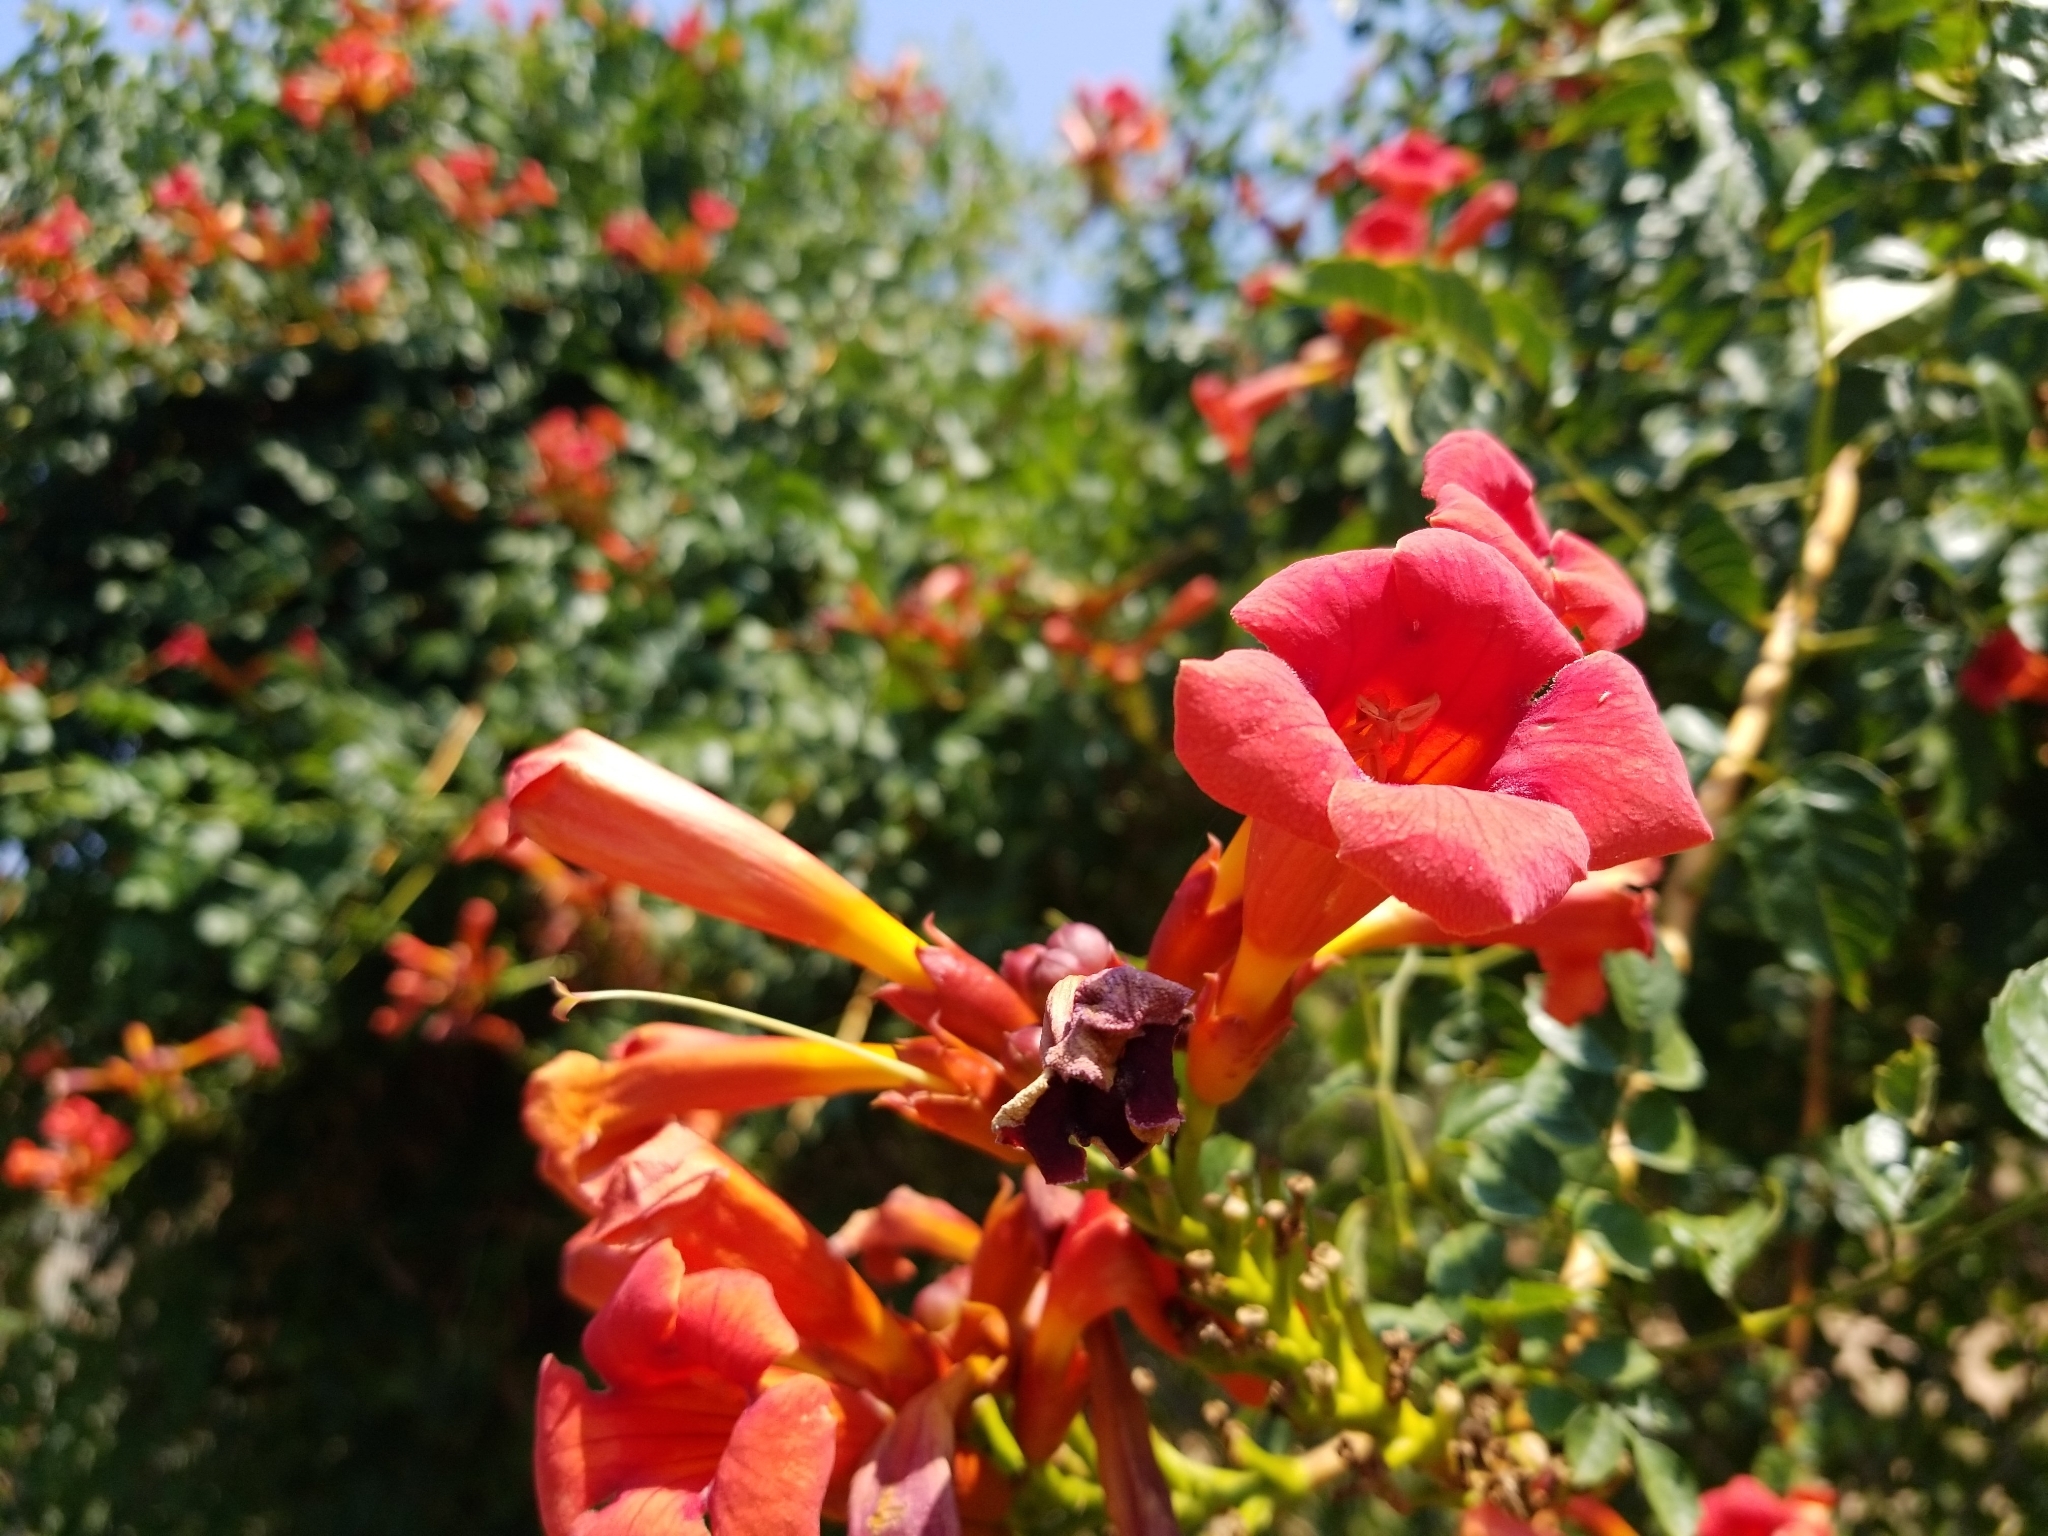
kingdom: Plantae
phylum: Tracheophyta
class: Magnoliopsida
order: Lamiales
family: Bignoniaceae
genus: Campsis
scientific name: Campsis radicans
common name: Trumpet-creeper
